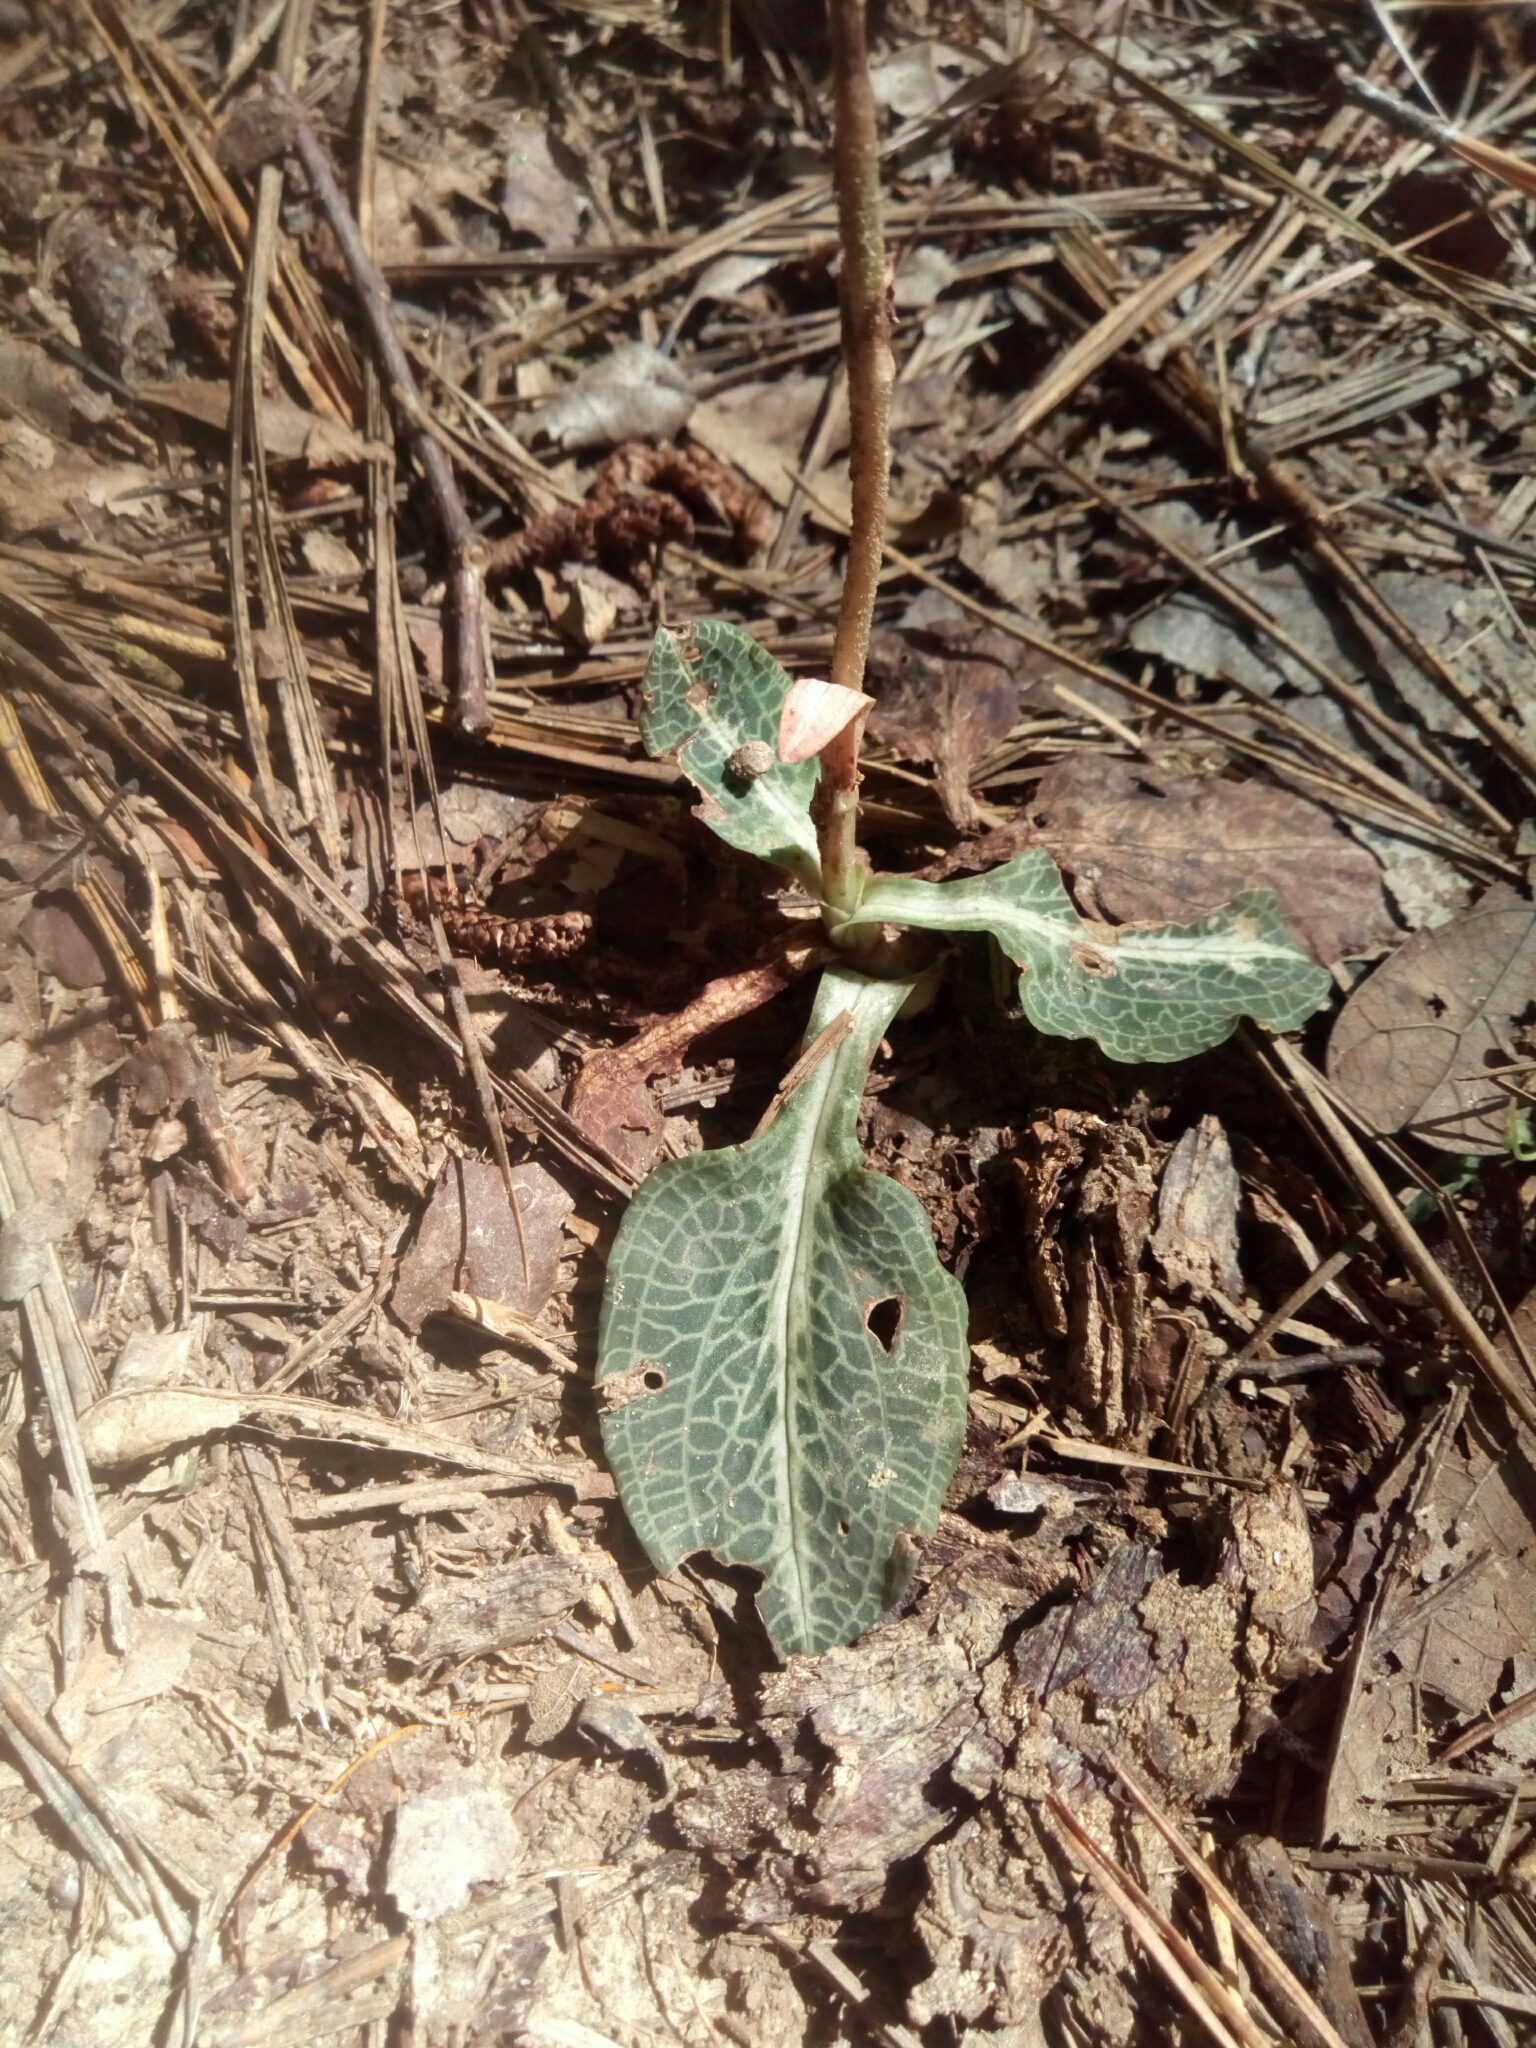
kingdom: Plantae
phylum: Tracheophyta
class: Liliopsida
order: Asparagales
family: Orchidaceae
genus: Goodyera
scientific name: Goodyera pubescens
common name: Downy rattlesnake-plantain
